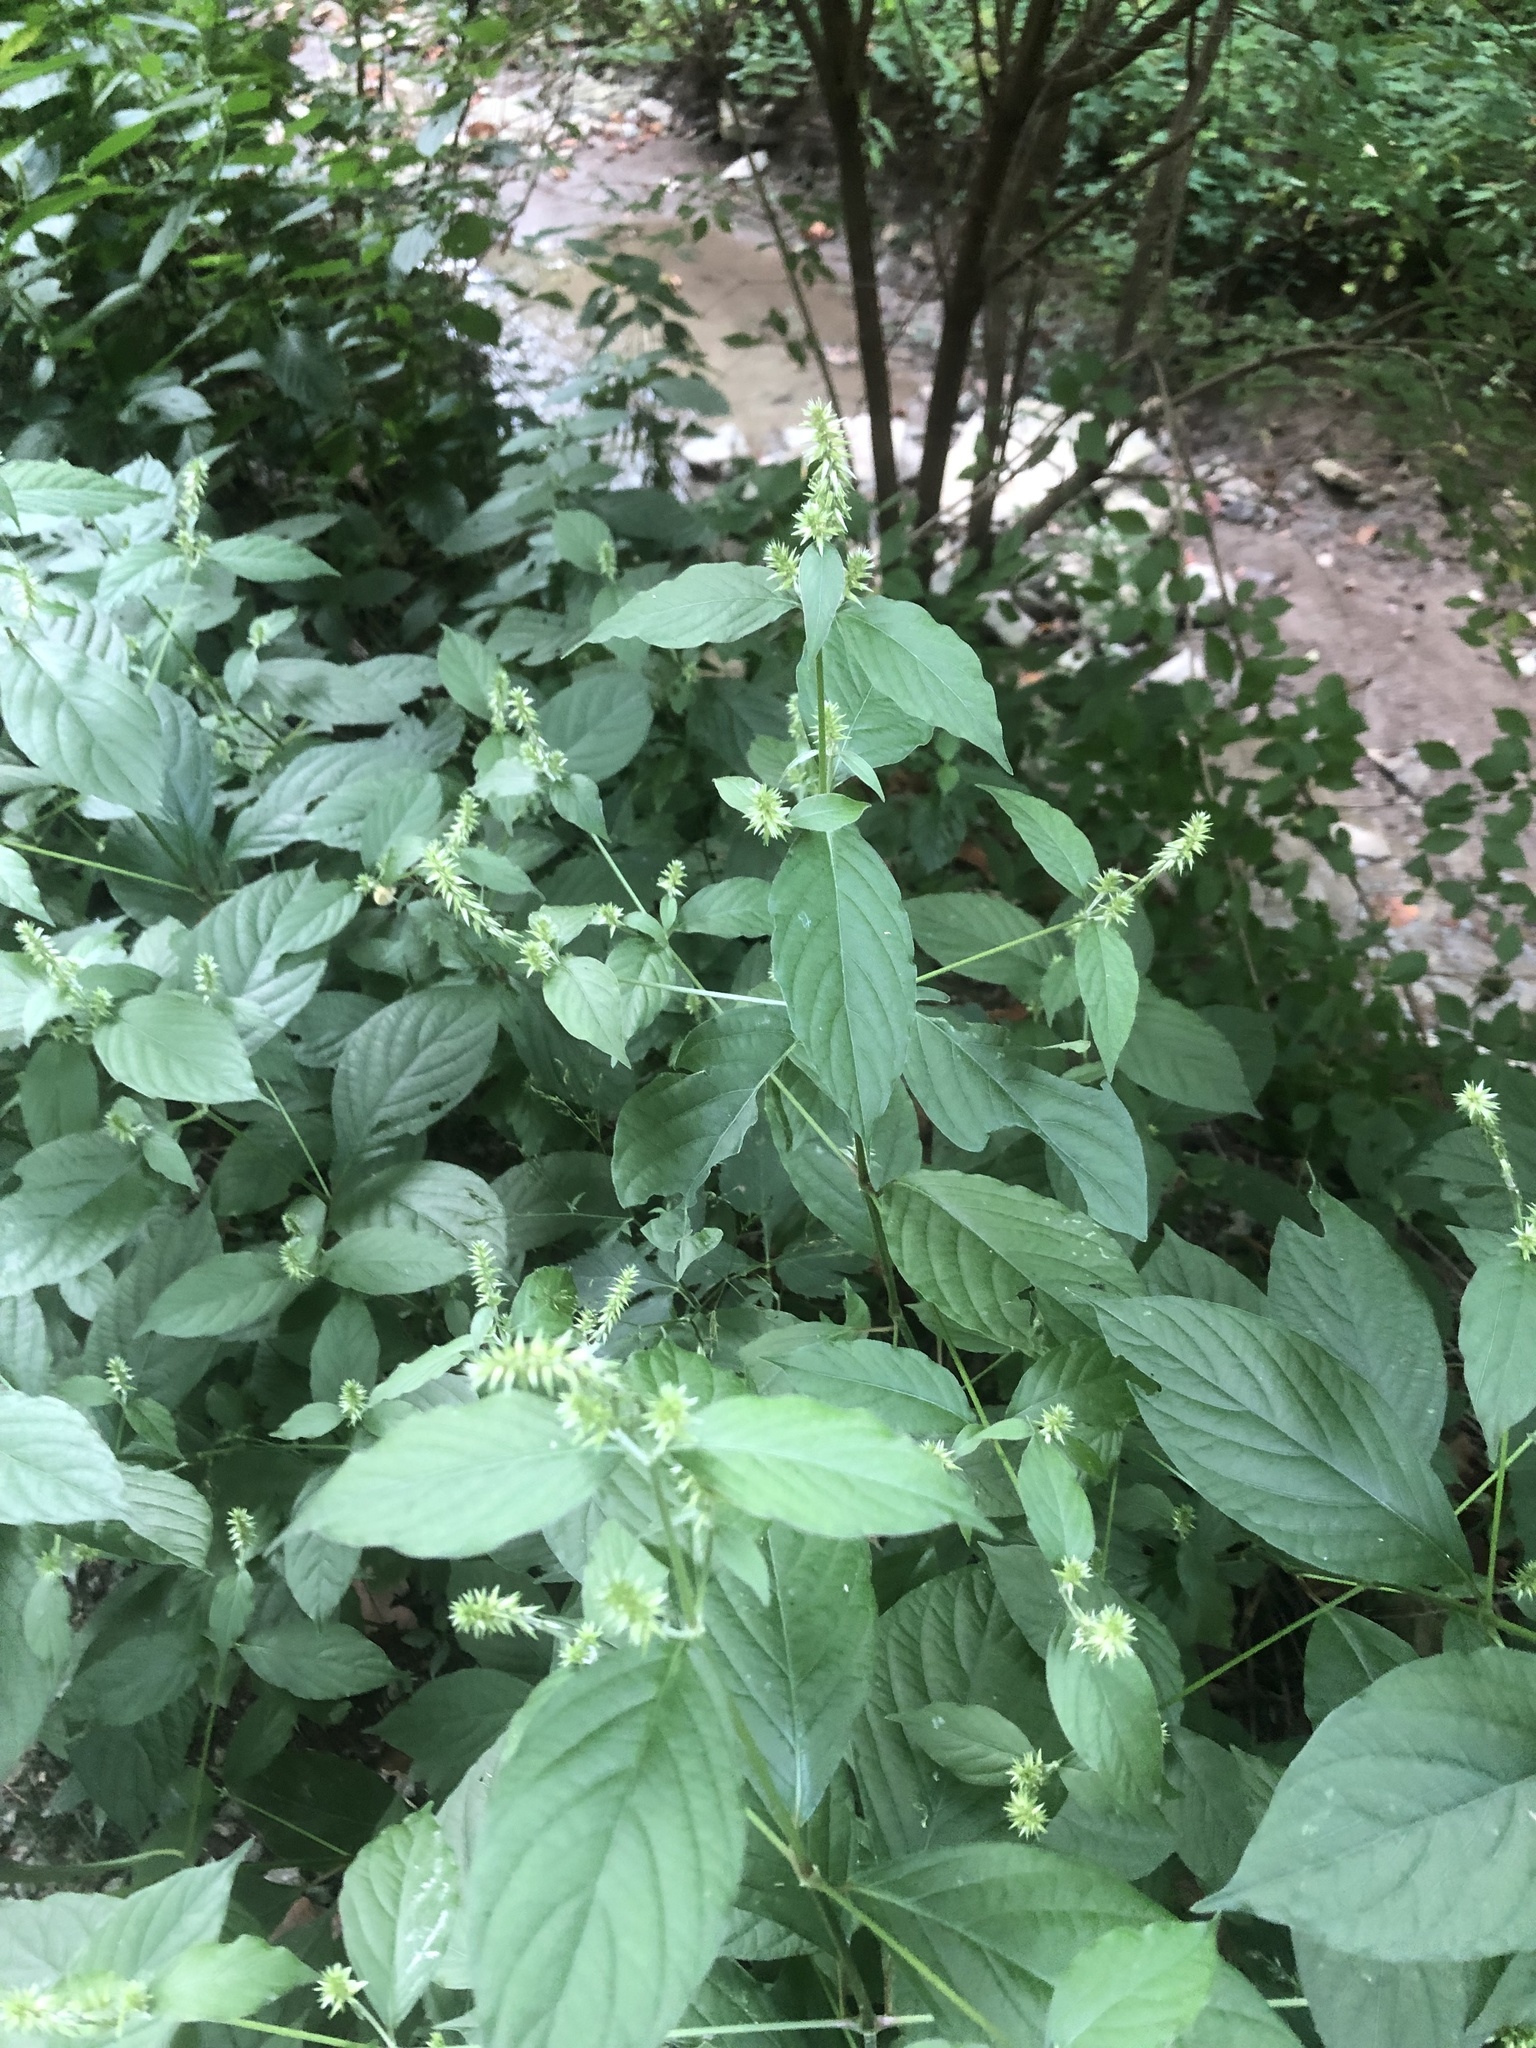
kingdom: Plantae
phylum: Tracheophyta
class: Magnoliopsida
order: Caryophyllales
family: Amaranthaceae
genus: Achyranthes
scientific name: Achyranthes bidentata
